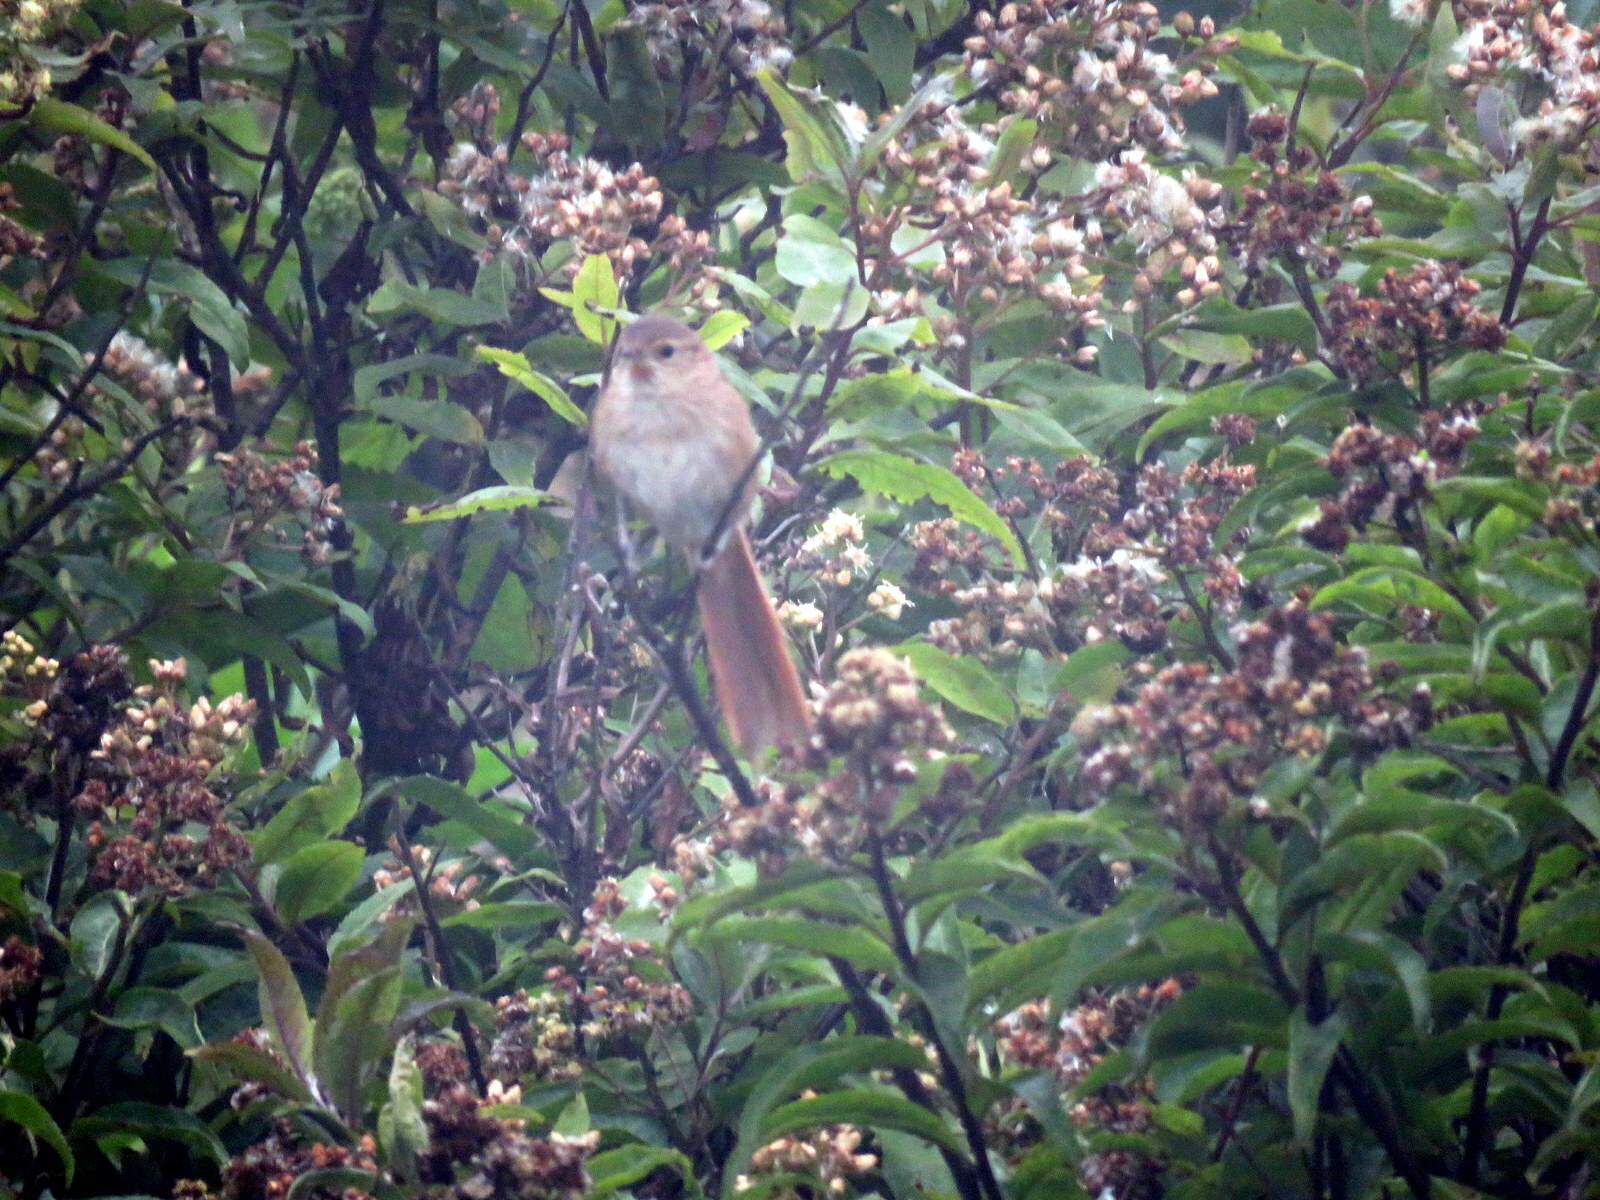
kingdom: Animalia
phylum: Chordata
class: Aves
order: Passeriformes
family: Furnariidae
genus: Asthenes
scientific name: Asthenes heterura
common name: Maquis canastero
